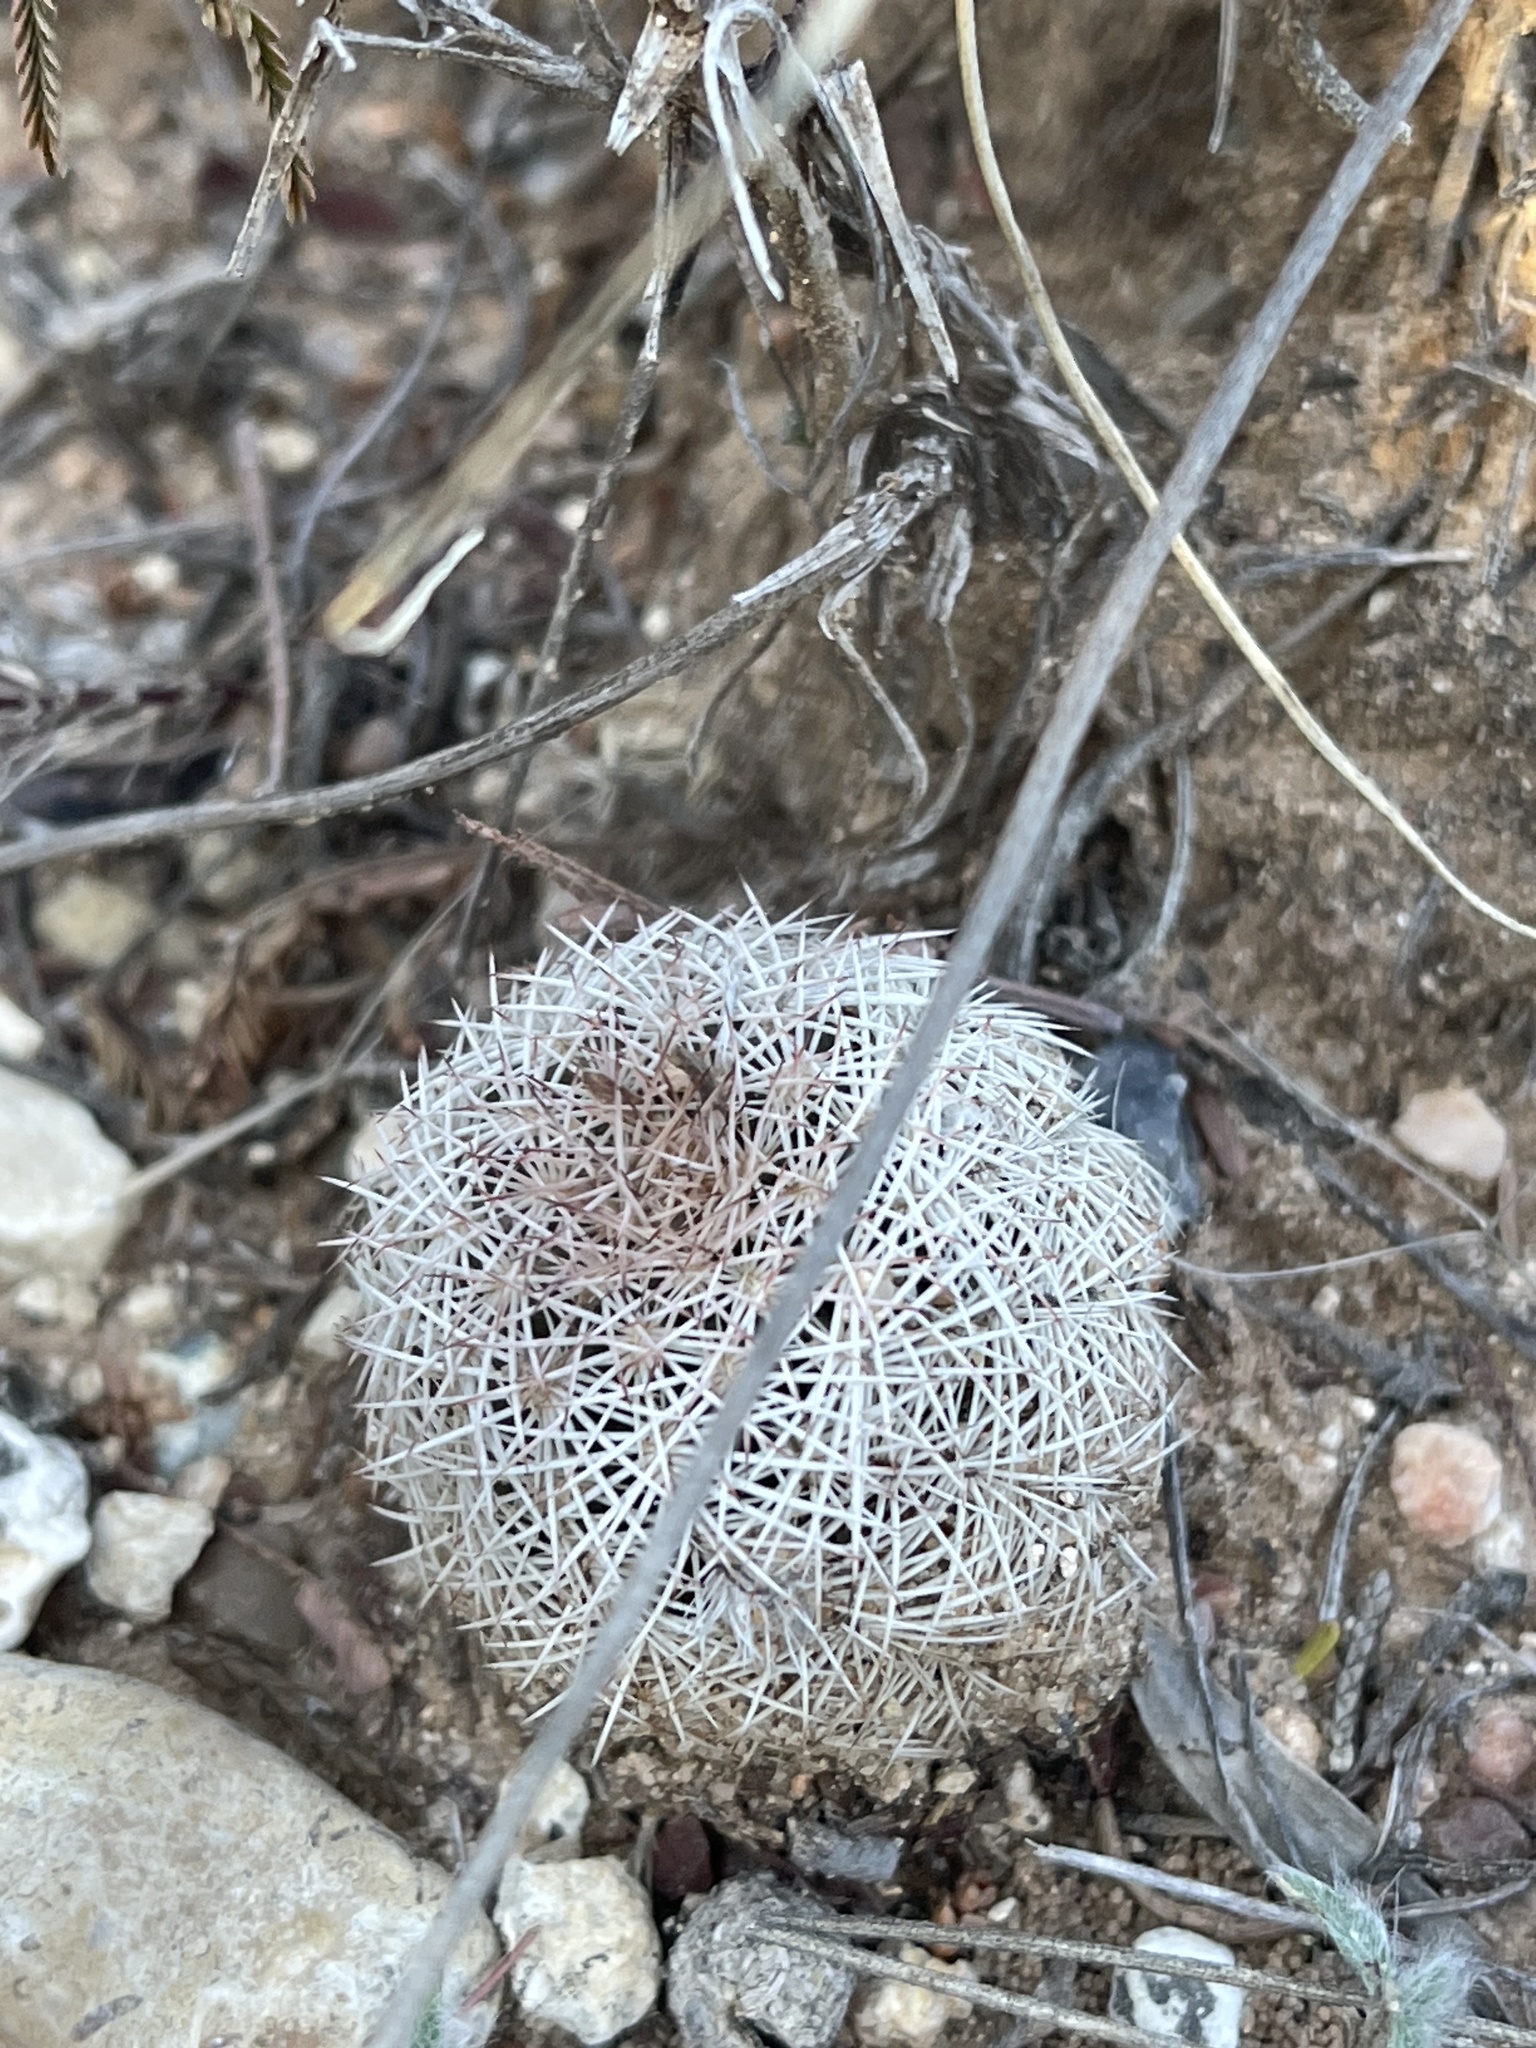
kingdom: Plantae
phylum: Tracheophyta
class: Magnoliopsida
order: Caryophyllales
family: Cactaceae
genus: Echinocereus
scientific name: Echinocereus reichenbachii
